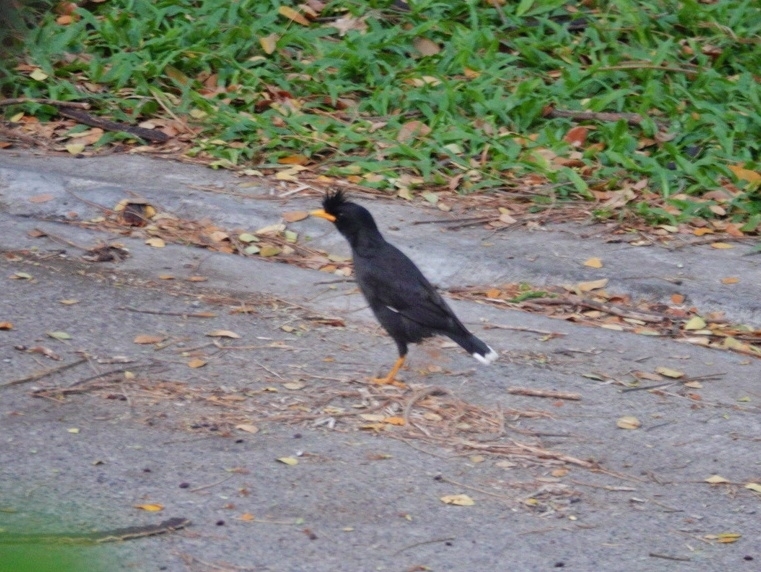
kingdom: Animalia
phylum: Chordata
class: Aves
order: Passeriformes
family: Sturnidae
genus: Acridotheres
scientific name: Acridotheres grandis
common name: Great myna
